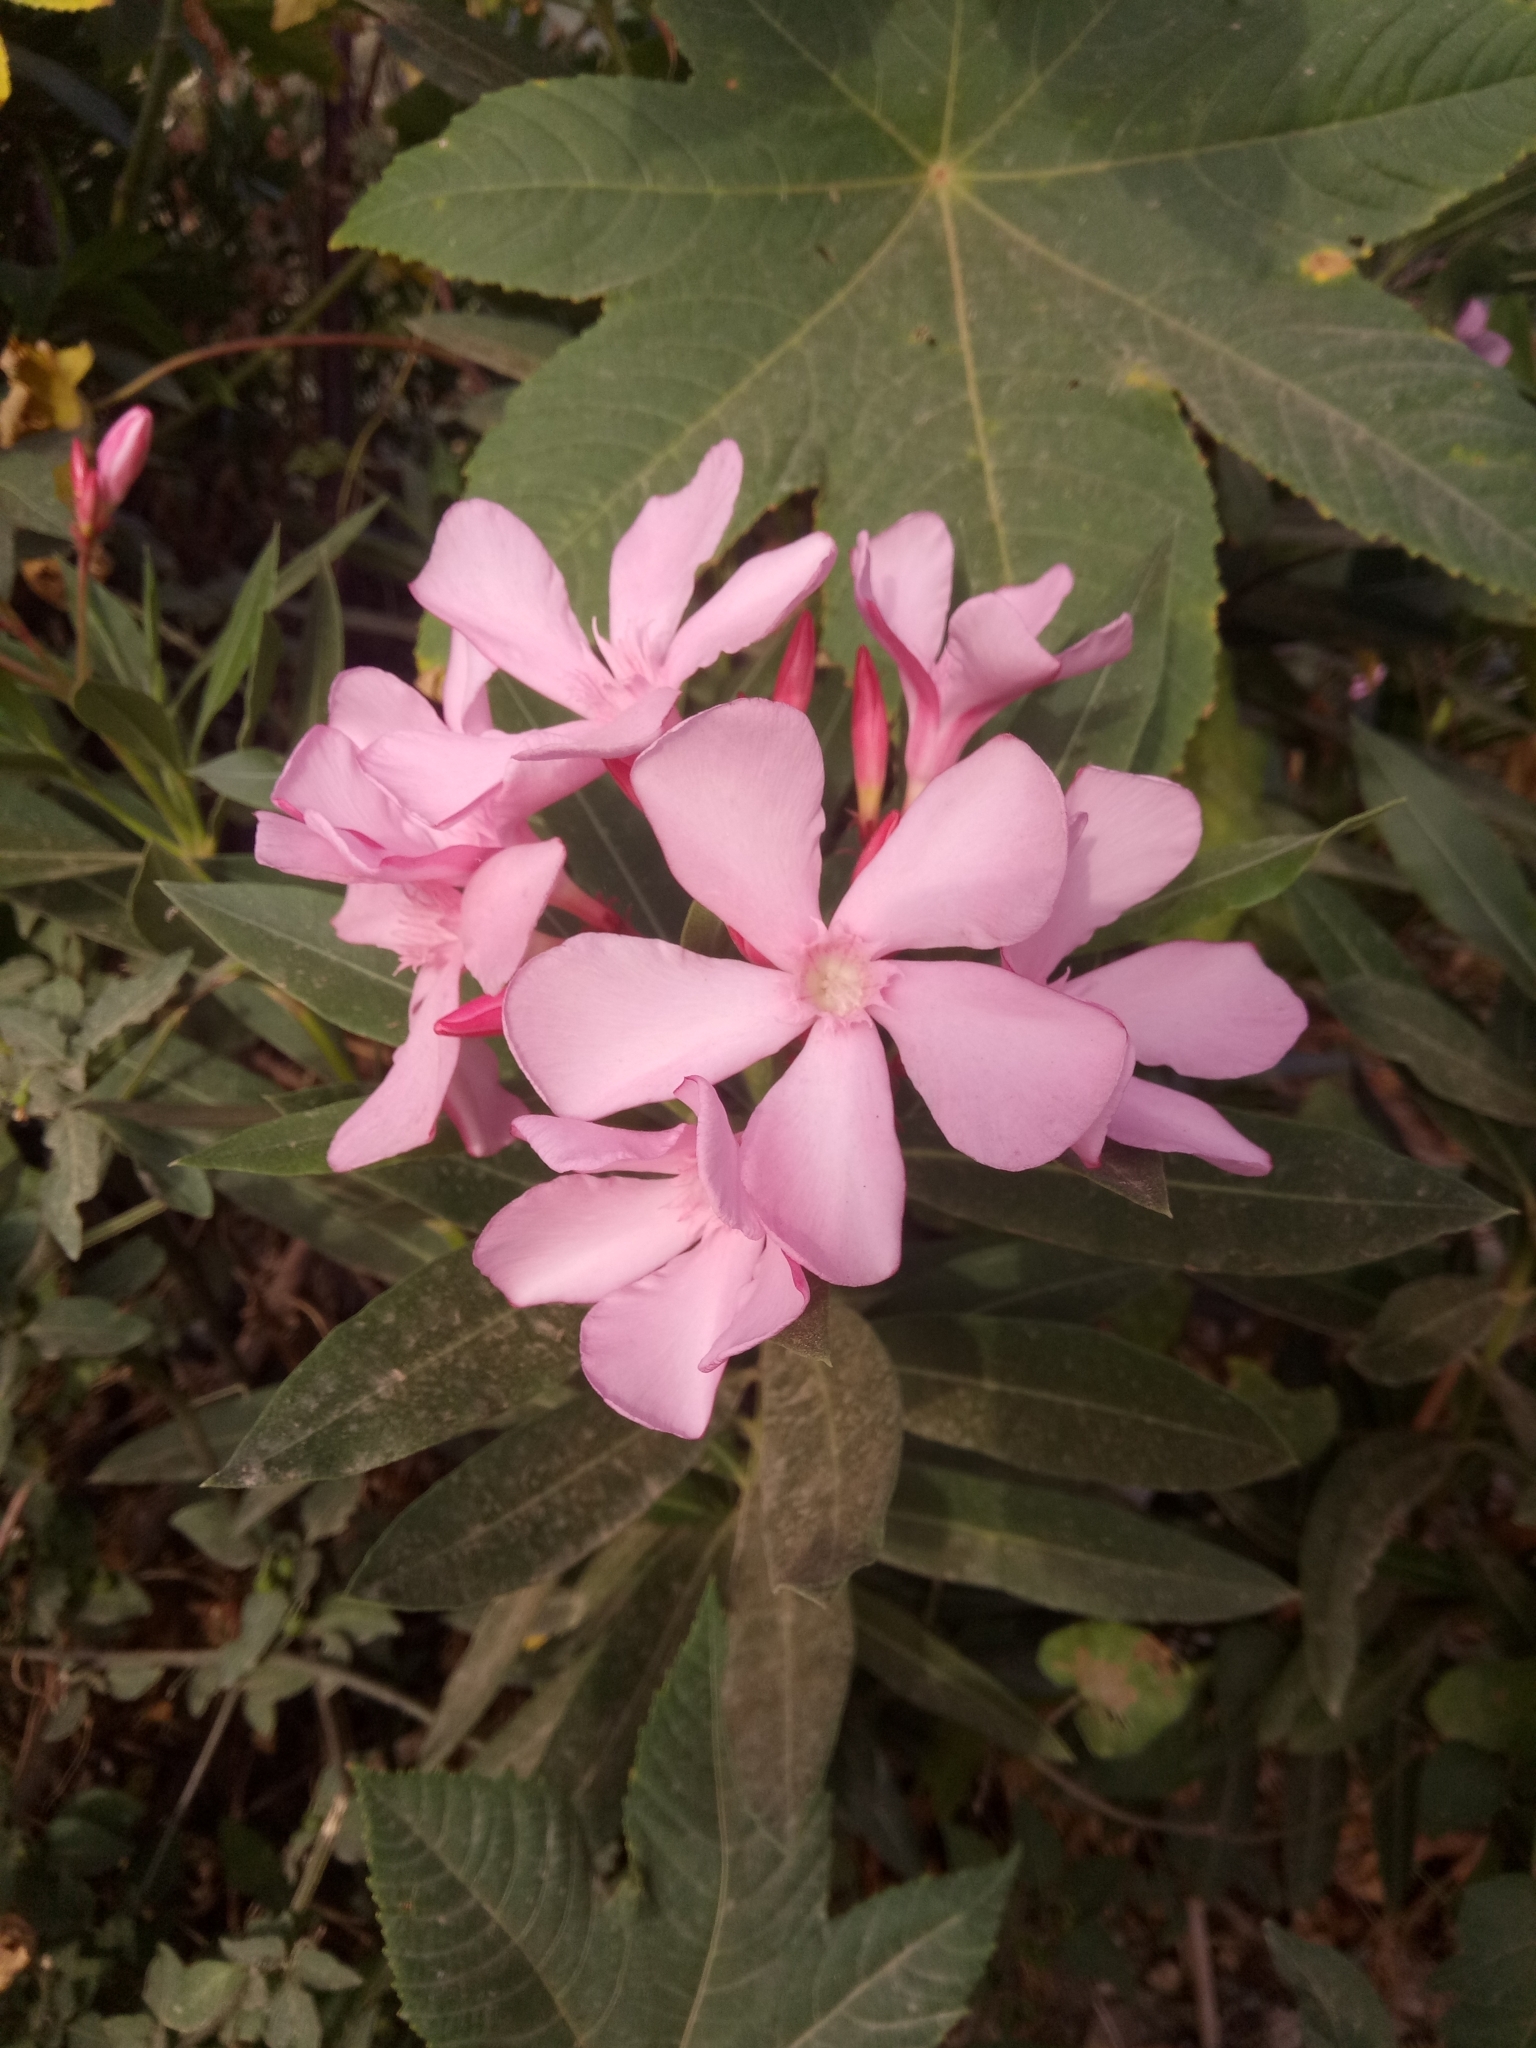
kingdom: Plantae
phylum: Tracheophyta
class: Magnoliopsida
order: Gentianales
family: Apocynaceae
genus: Nerium
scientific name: Nerium oleander
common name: Oleander
